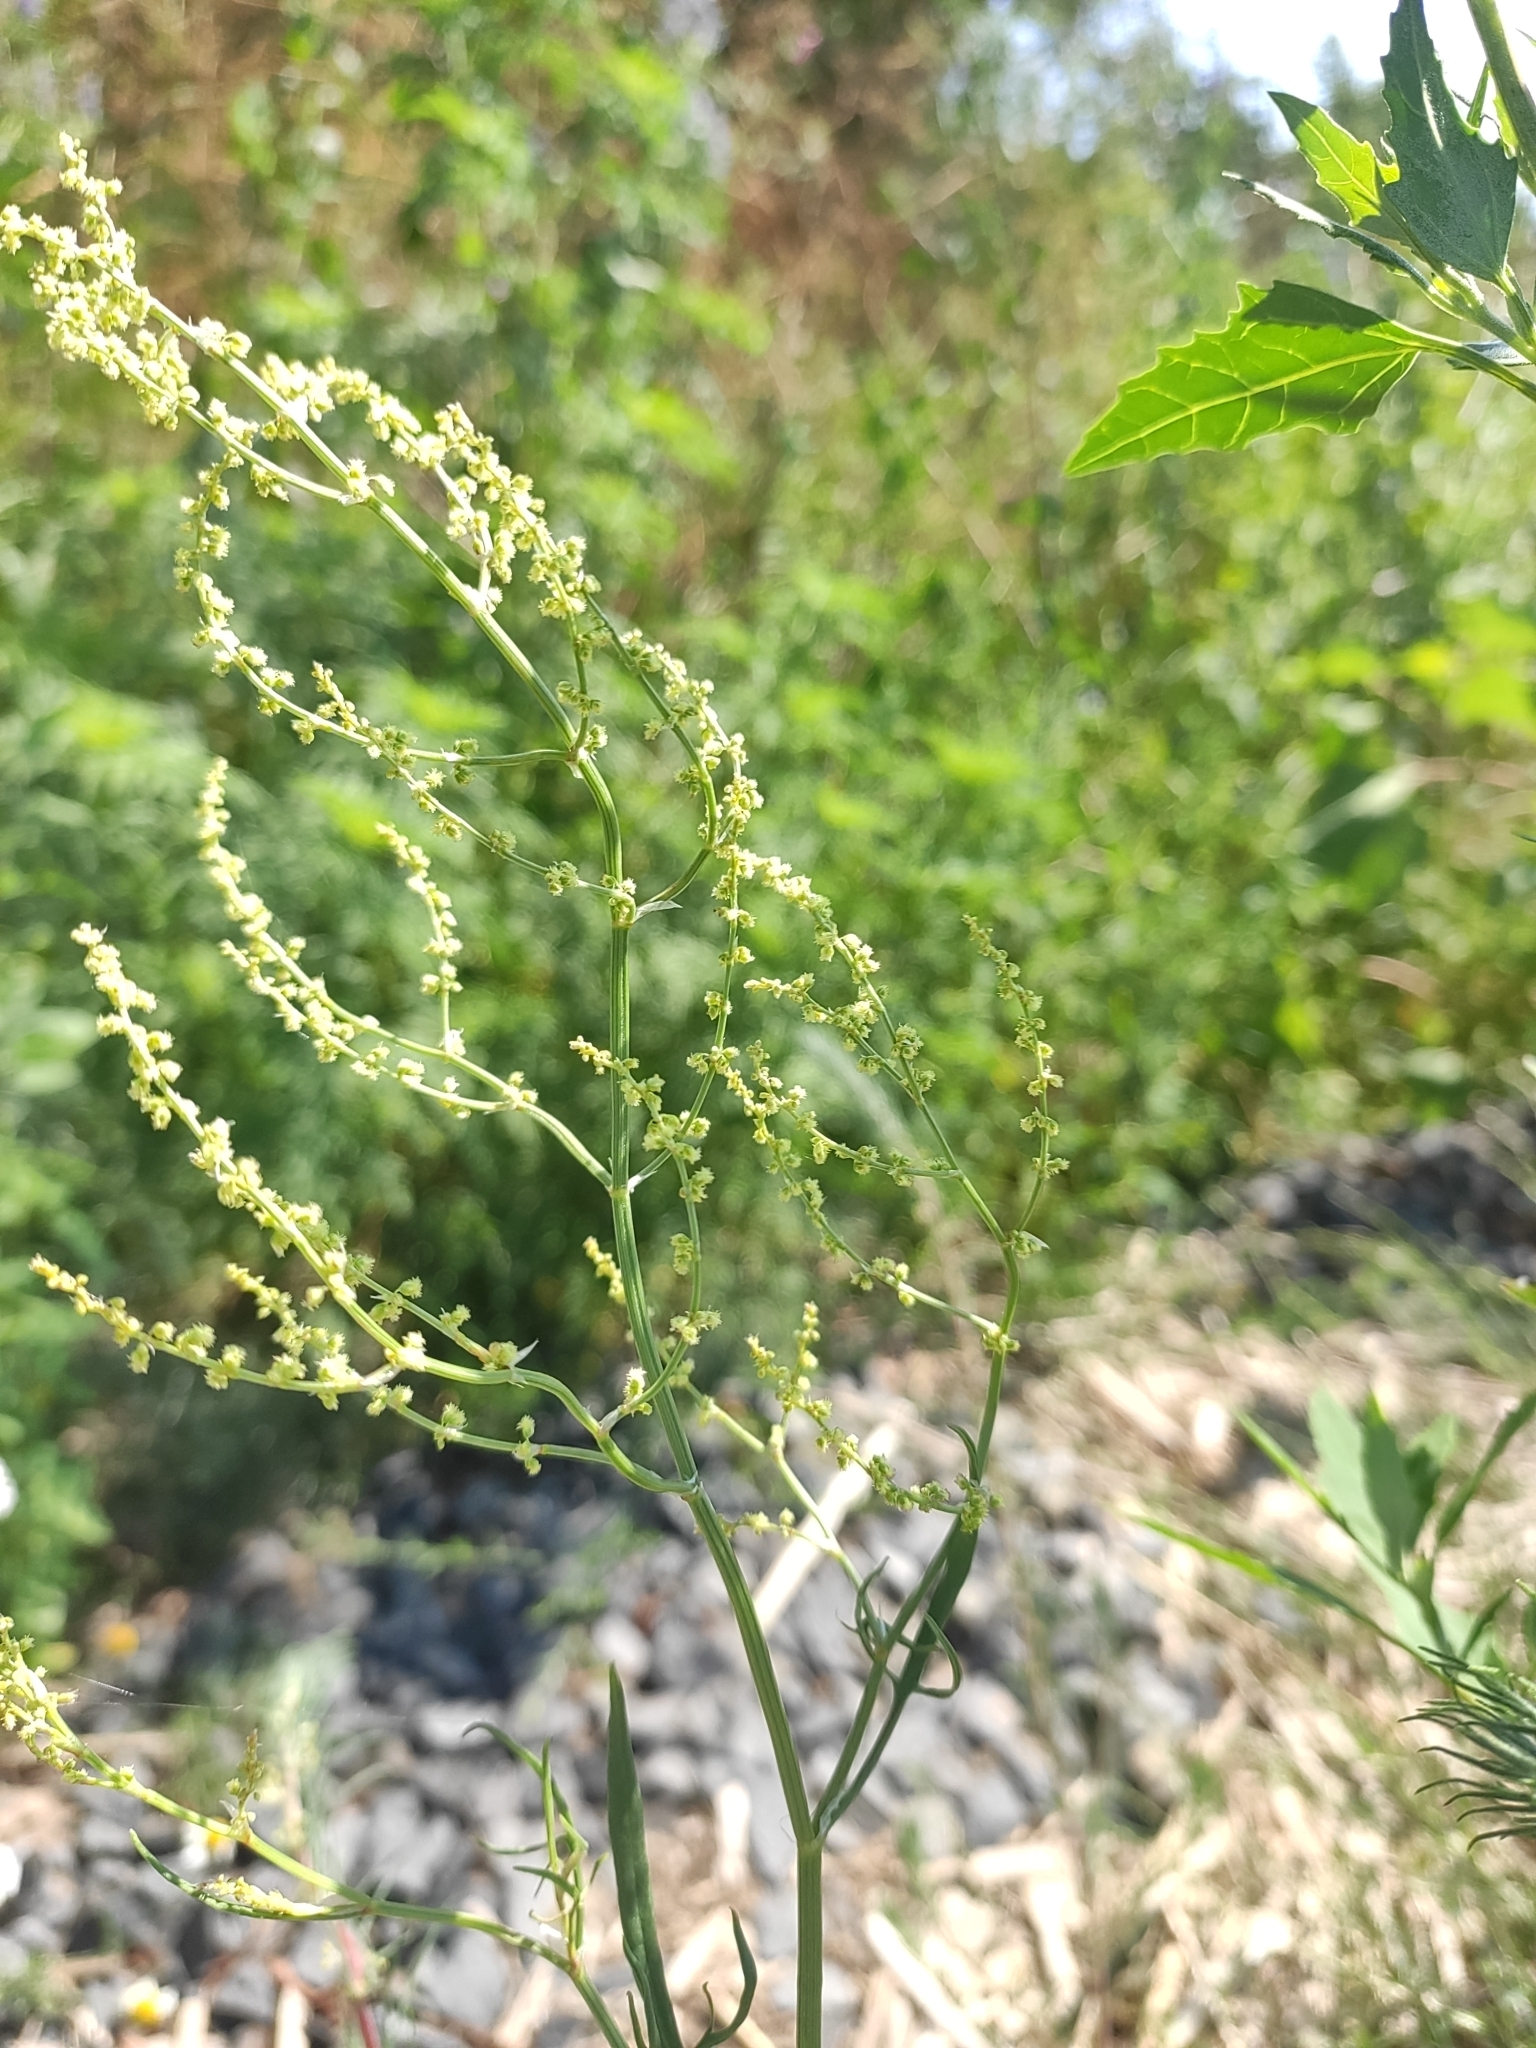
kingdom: Plantae
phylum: Tracheophyta
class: Magnoliopsida
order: Caryophyllales
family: Polygonaceae
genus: Rumex
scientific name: Rumex acetosella
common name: Common sheep sorrel
